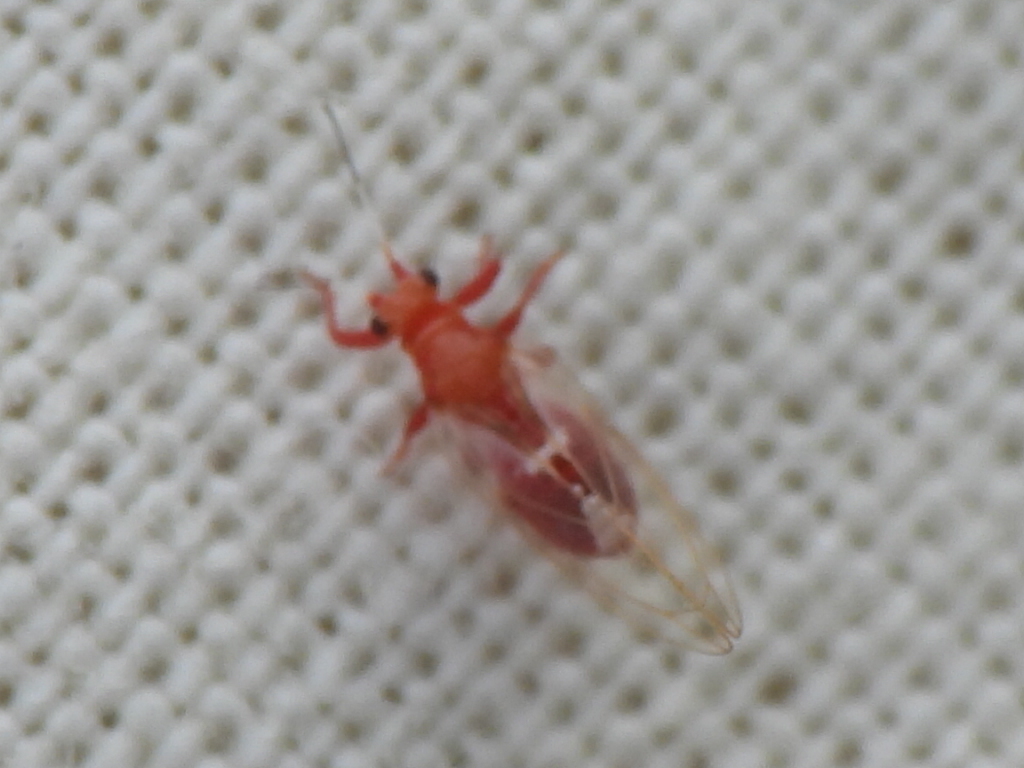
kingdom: Animalia
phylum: Arthropoda
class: Insecta
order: Hemiptera
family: Triozidae
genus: Bactericera
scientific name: Bactericera antennata
